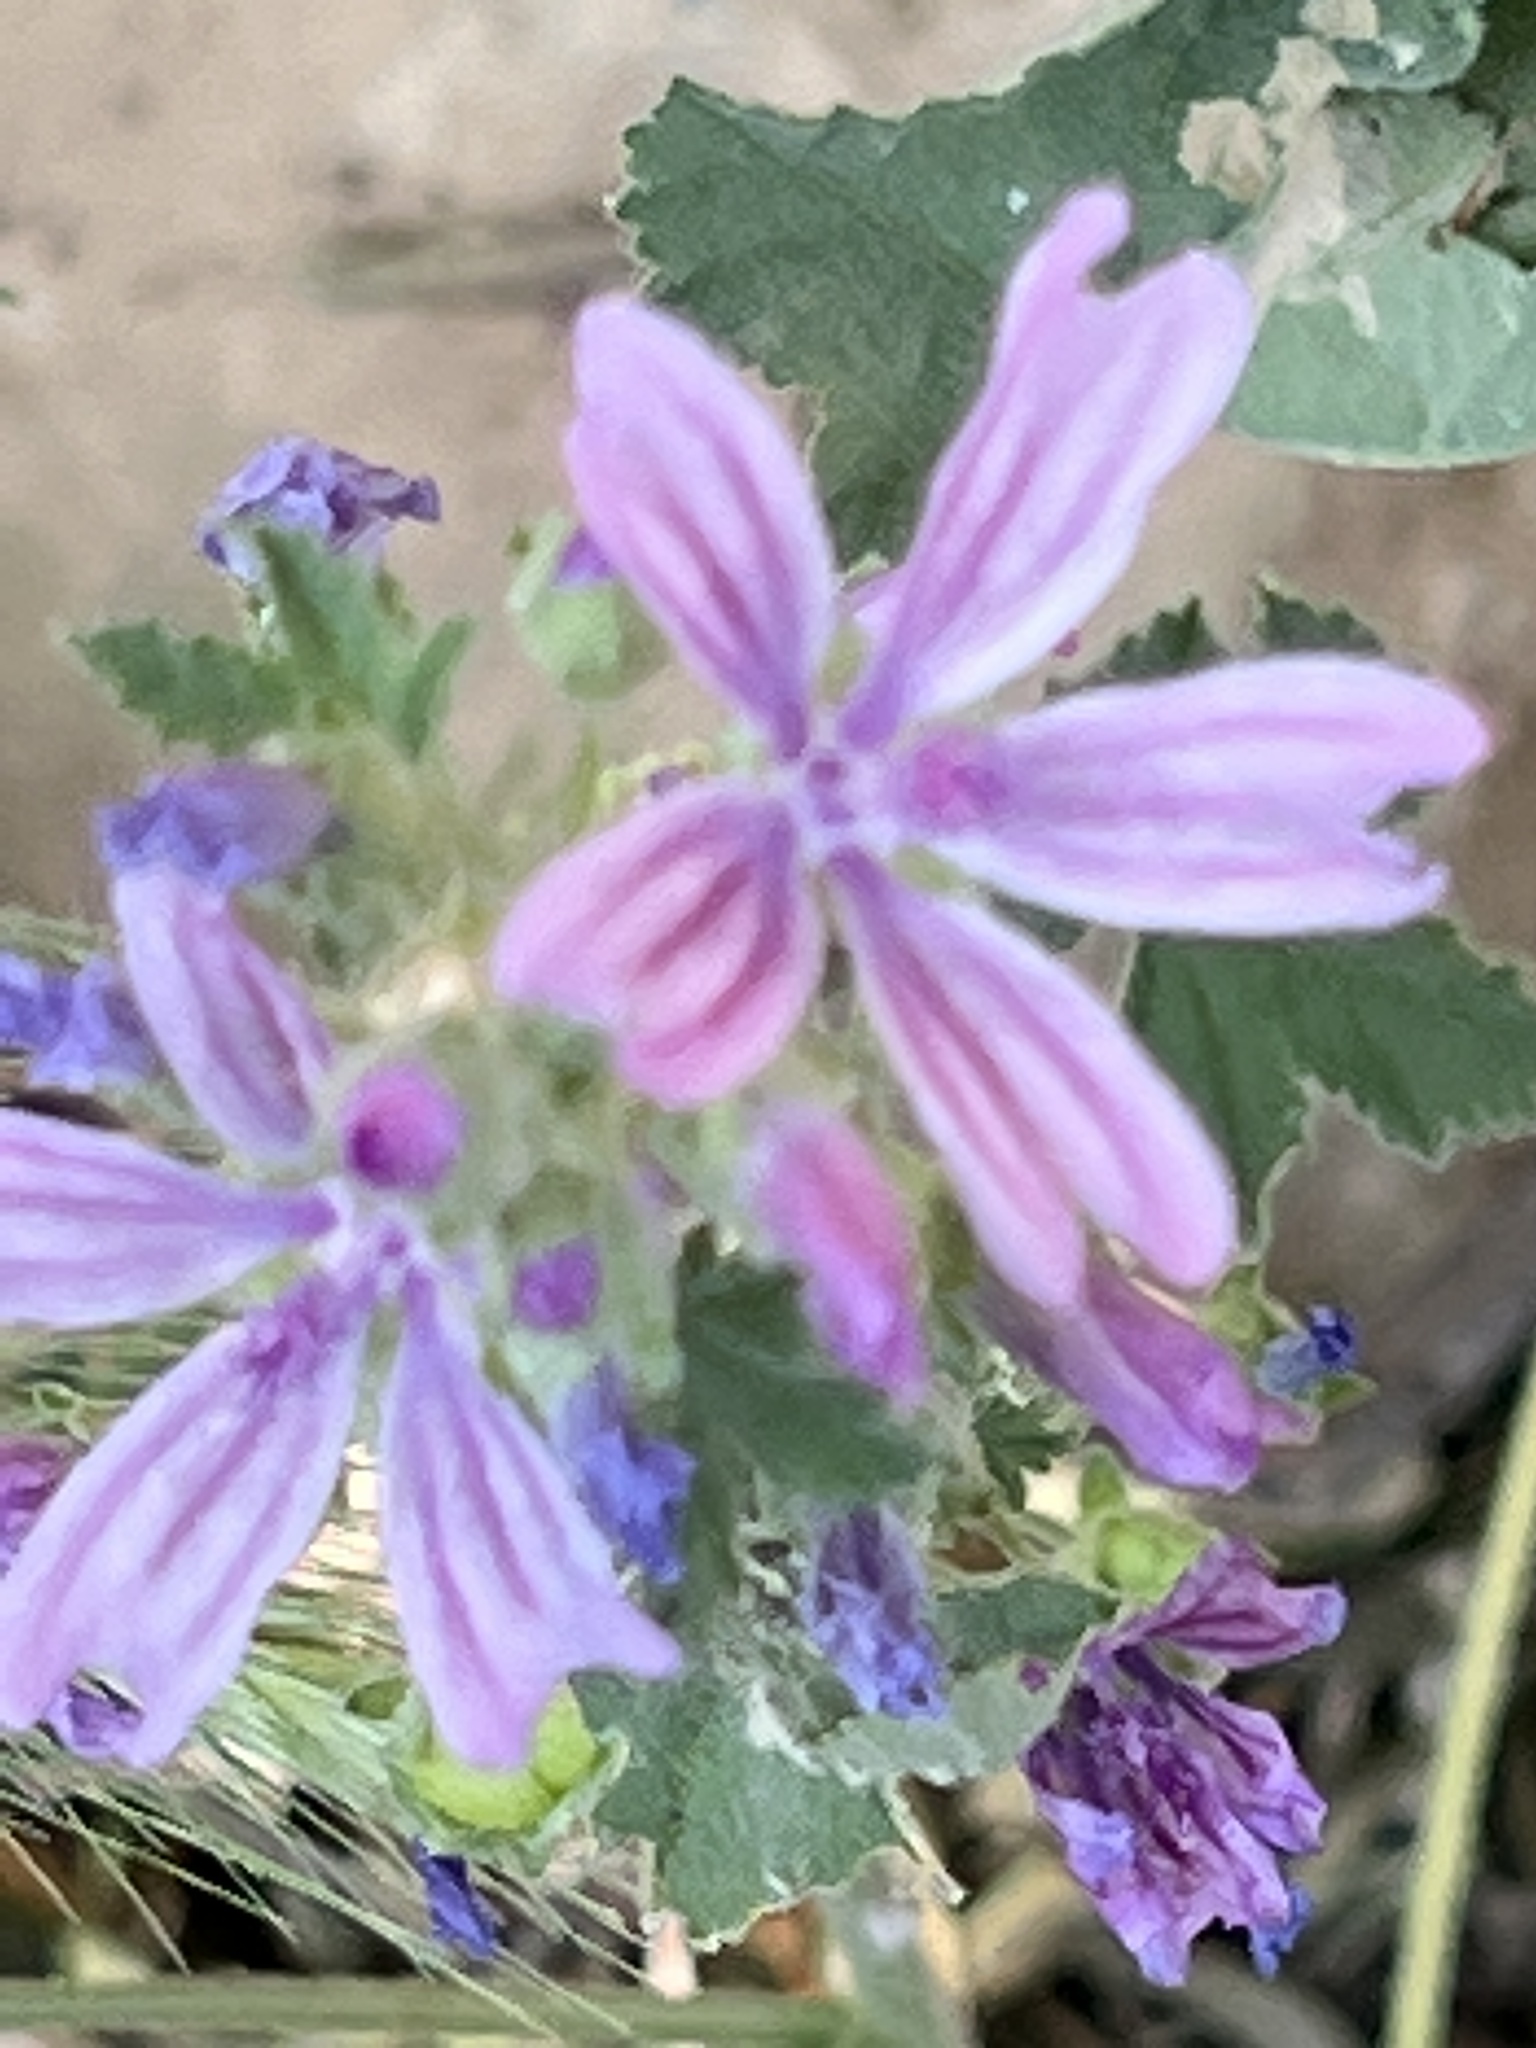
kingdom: Plantae
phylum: Tracheophyta
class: Magnoliopsida
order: Malvales
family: Malvaceae
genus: Malva
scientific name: Malva sylvestris
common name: Common mallow
